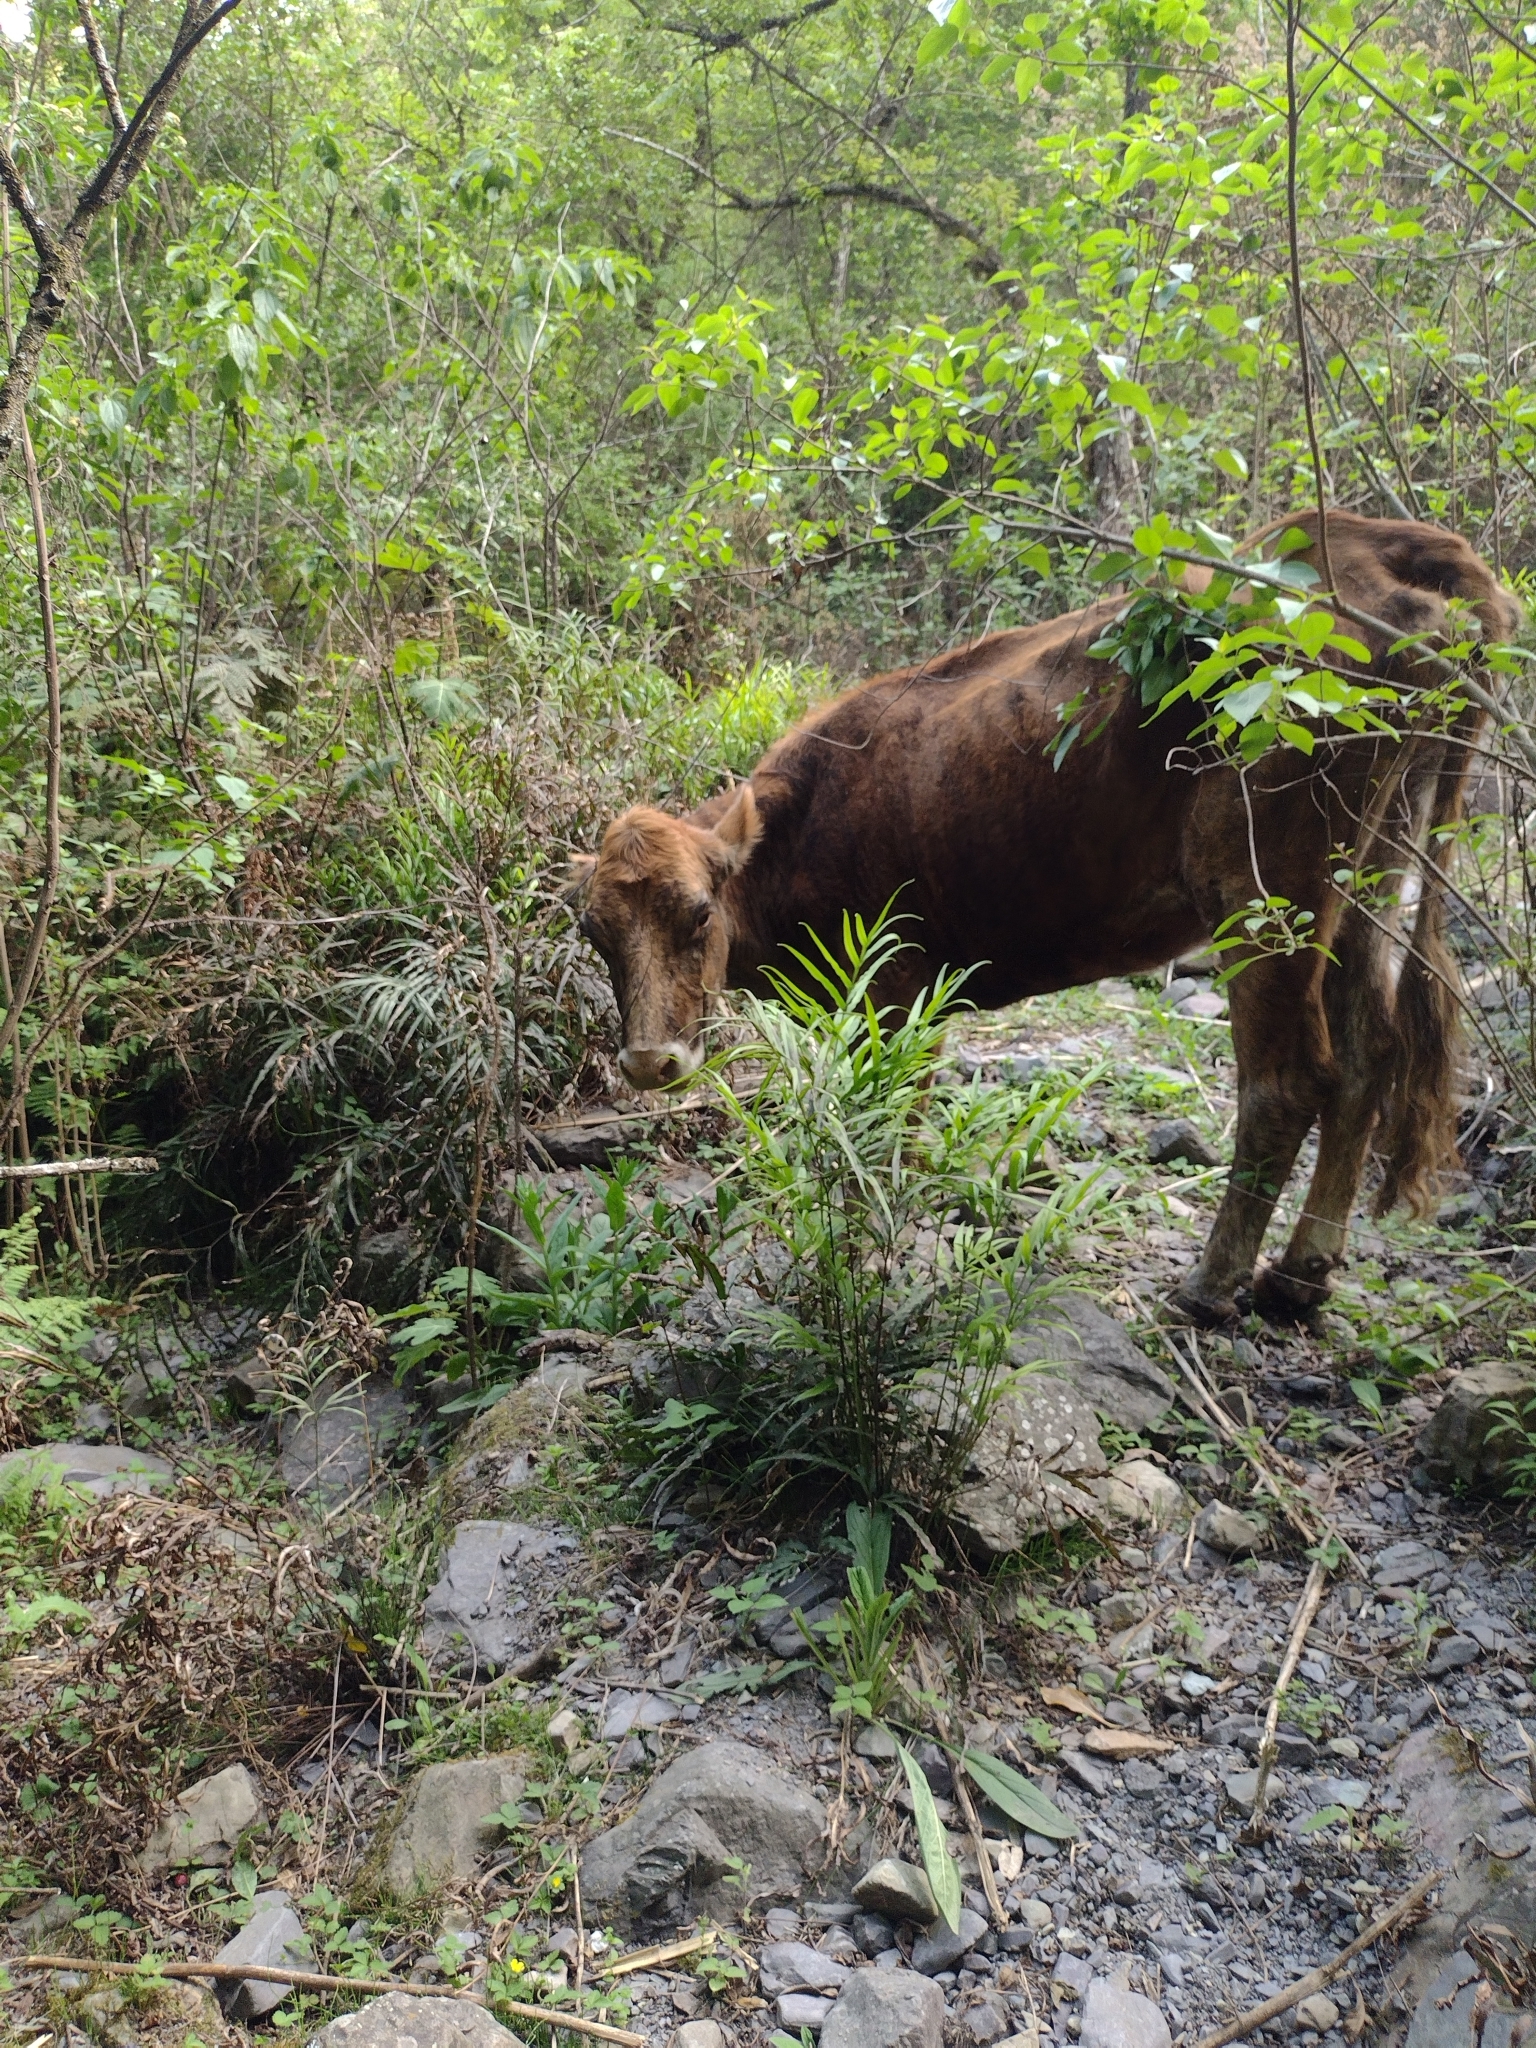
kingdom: Animalia
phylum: Chordata
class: Mammalia
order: Artiodactyla
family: Bovidae
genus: Bos
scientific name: Bos taurus
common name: Domesticated cattle
